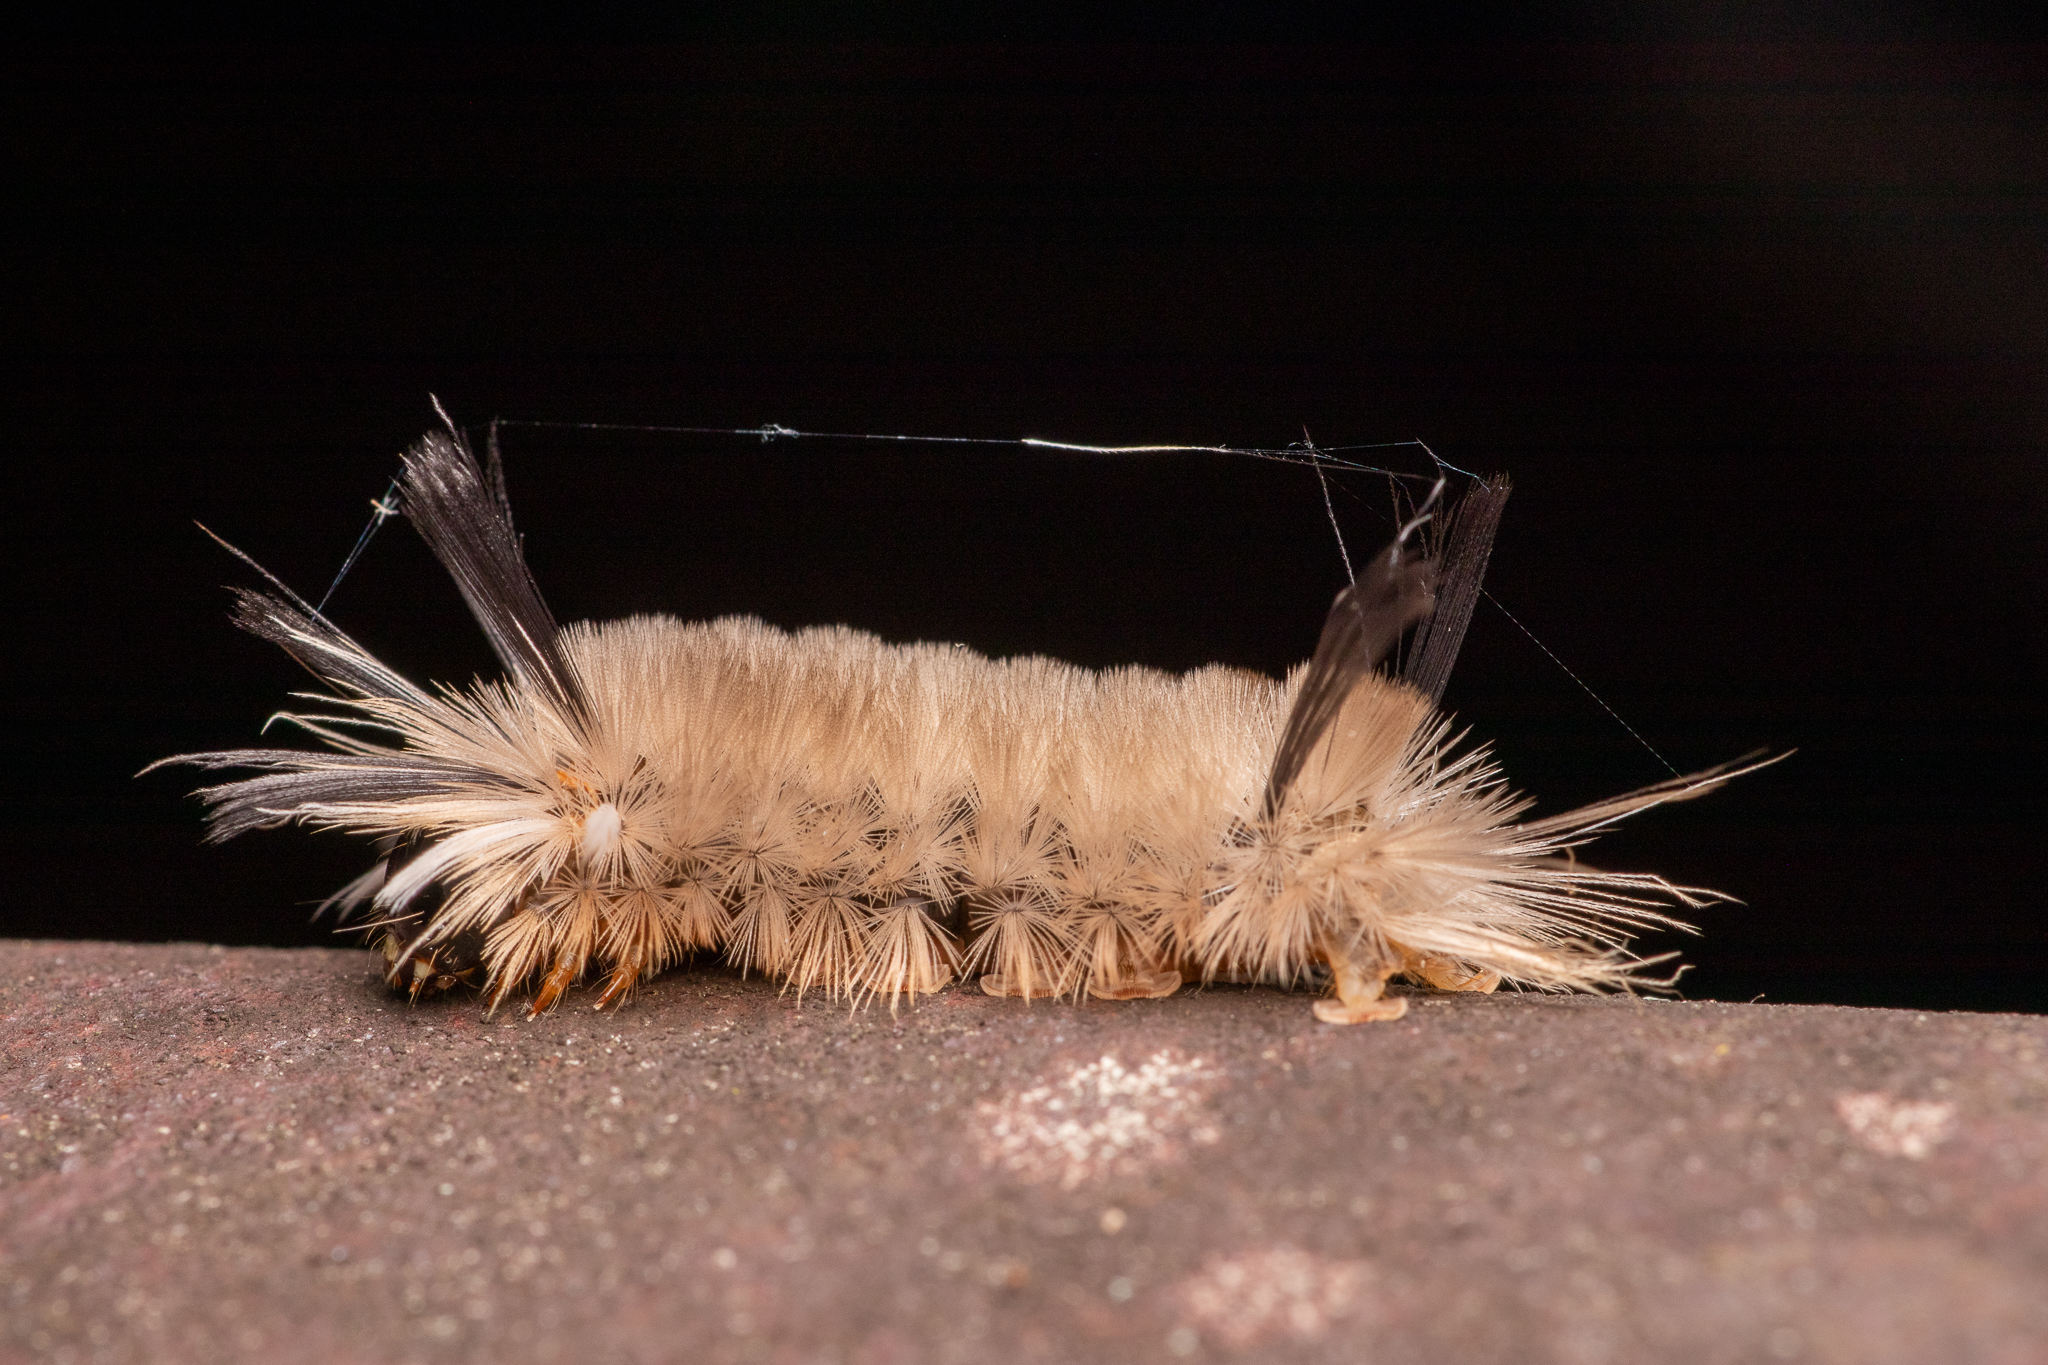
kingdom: Animalia
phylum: Arthropoda
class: Insecta
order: Lepidoptera
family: Erebidae
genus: Halysidota
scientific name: Halysidota tessellaris
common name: Banded tussock moth
